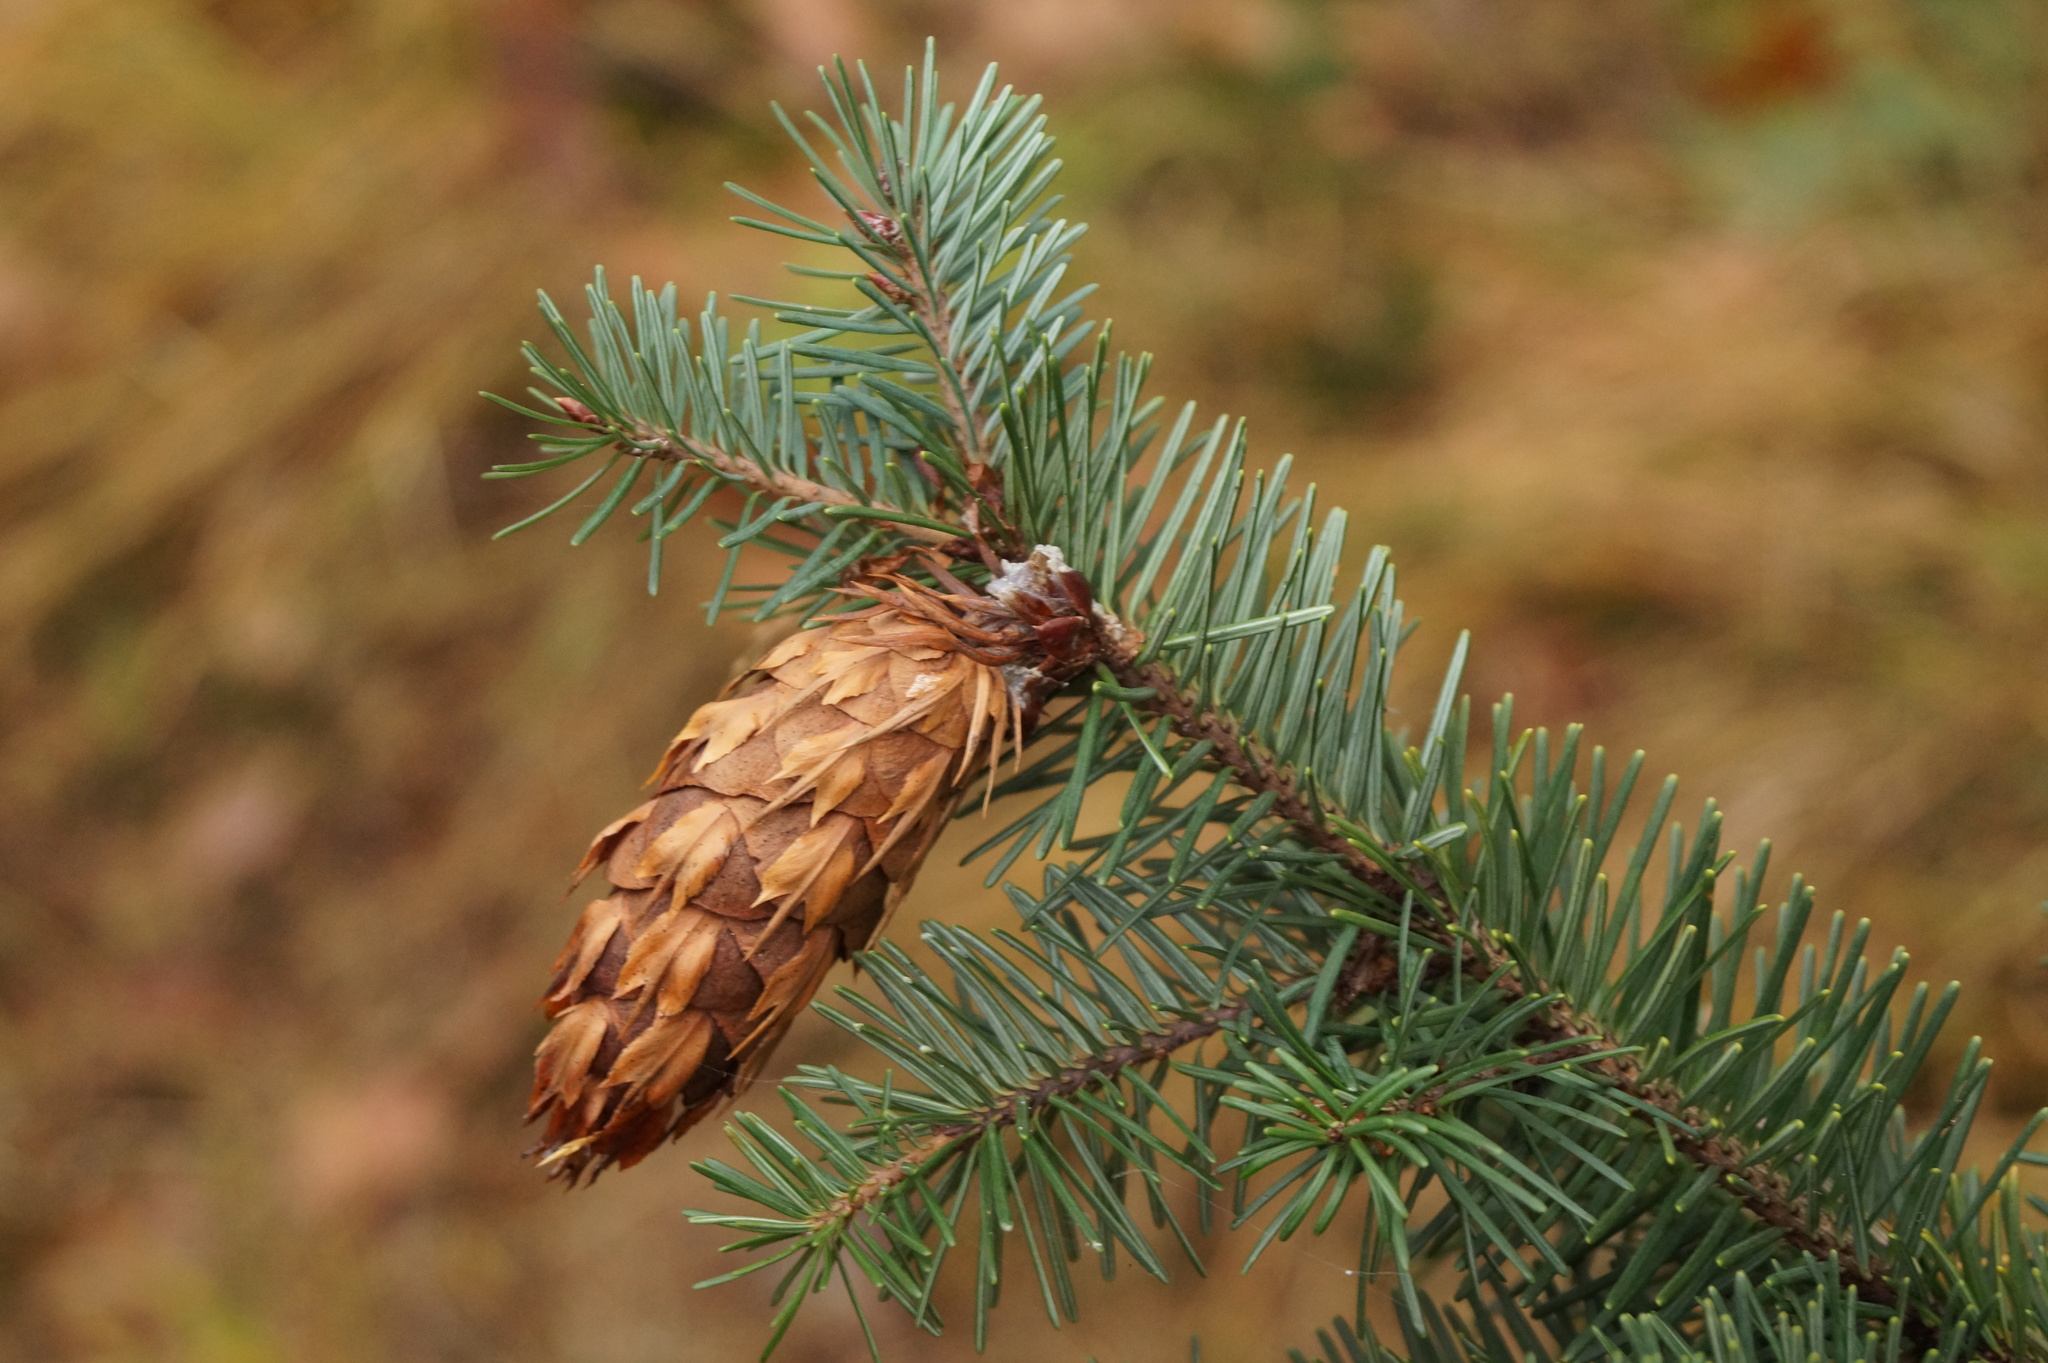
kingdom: Plantae
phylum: Tracheophyta
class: Pinopsida
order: Pinales
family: Pinaceae
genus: Pseudotsuga
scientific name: Pseudotsuga menziesii
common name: Douglas fir
